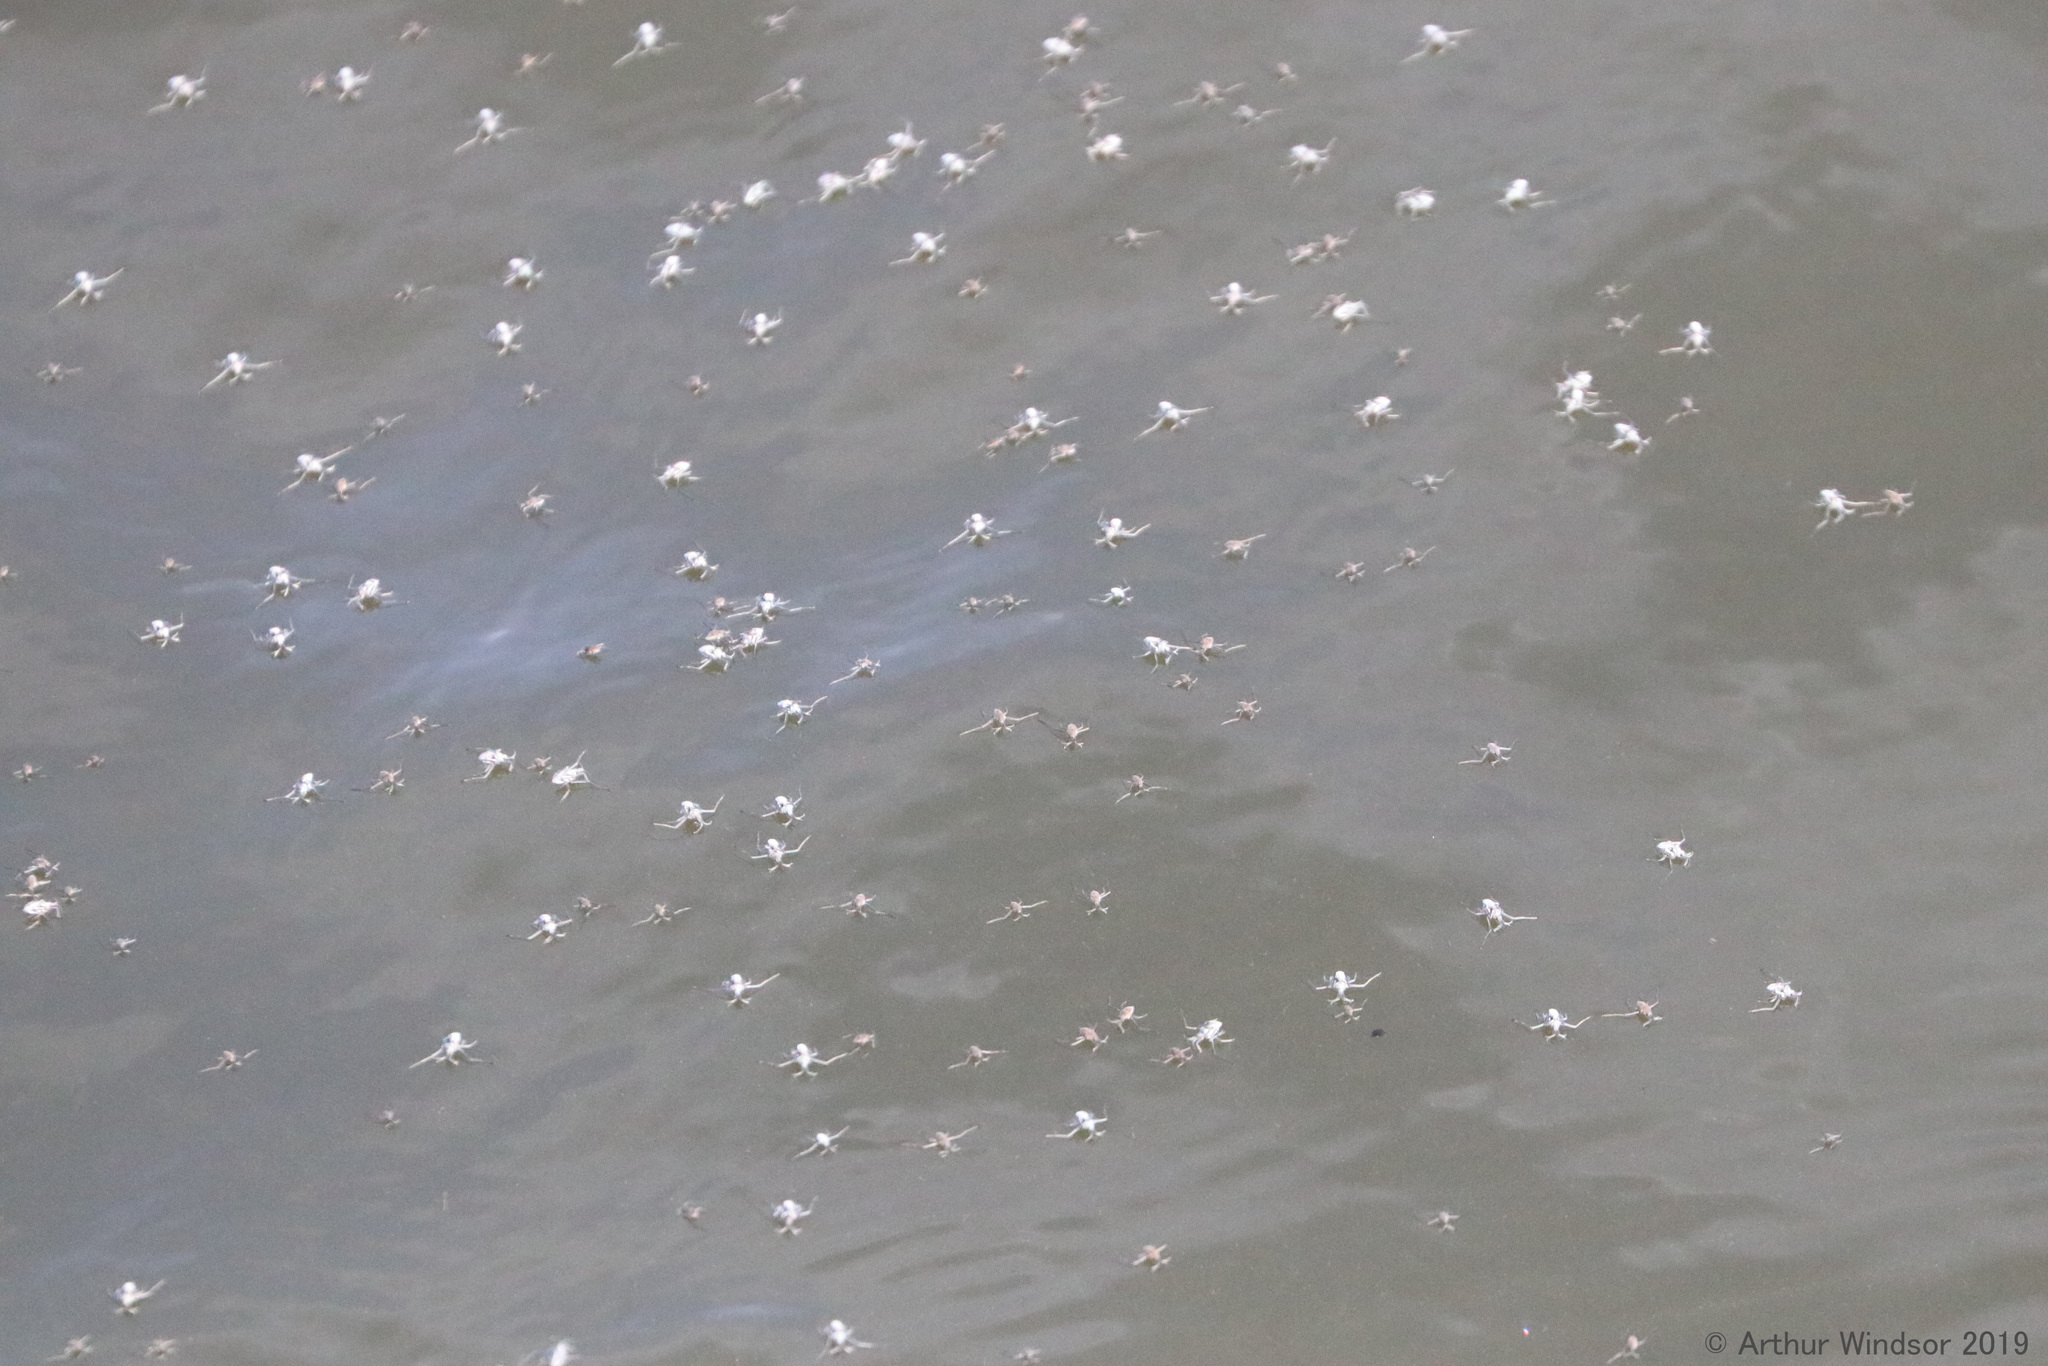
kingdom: Animalia
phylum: Arthropoda
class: Insecta
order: Hemiptera
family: Veliidae
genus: Rhagovelia
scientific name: Rhagovelia plumbea
